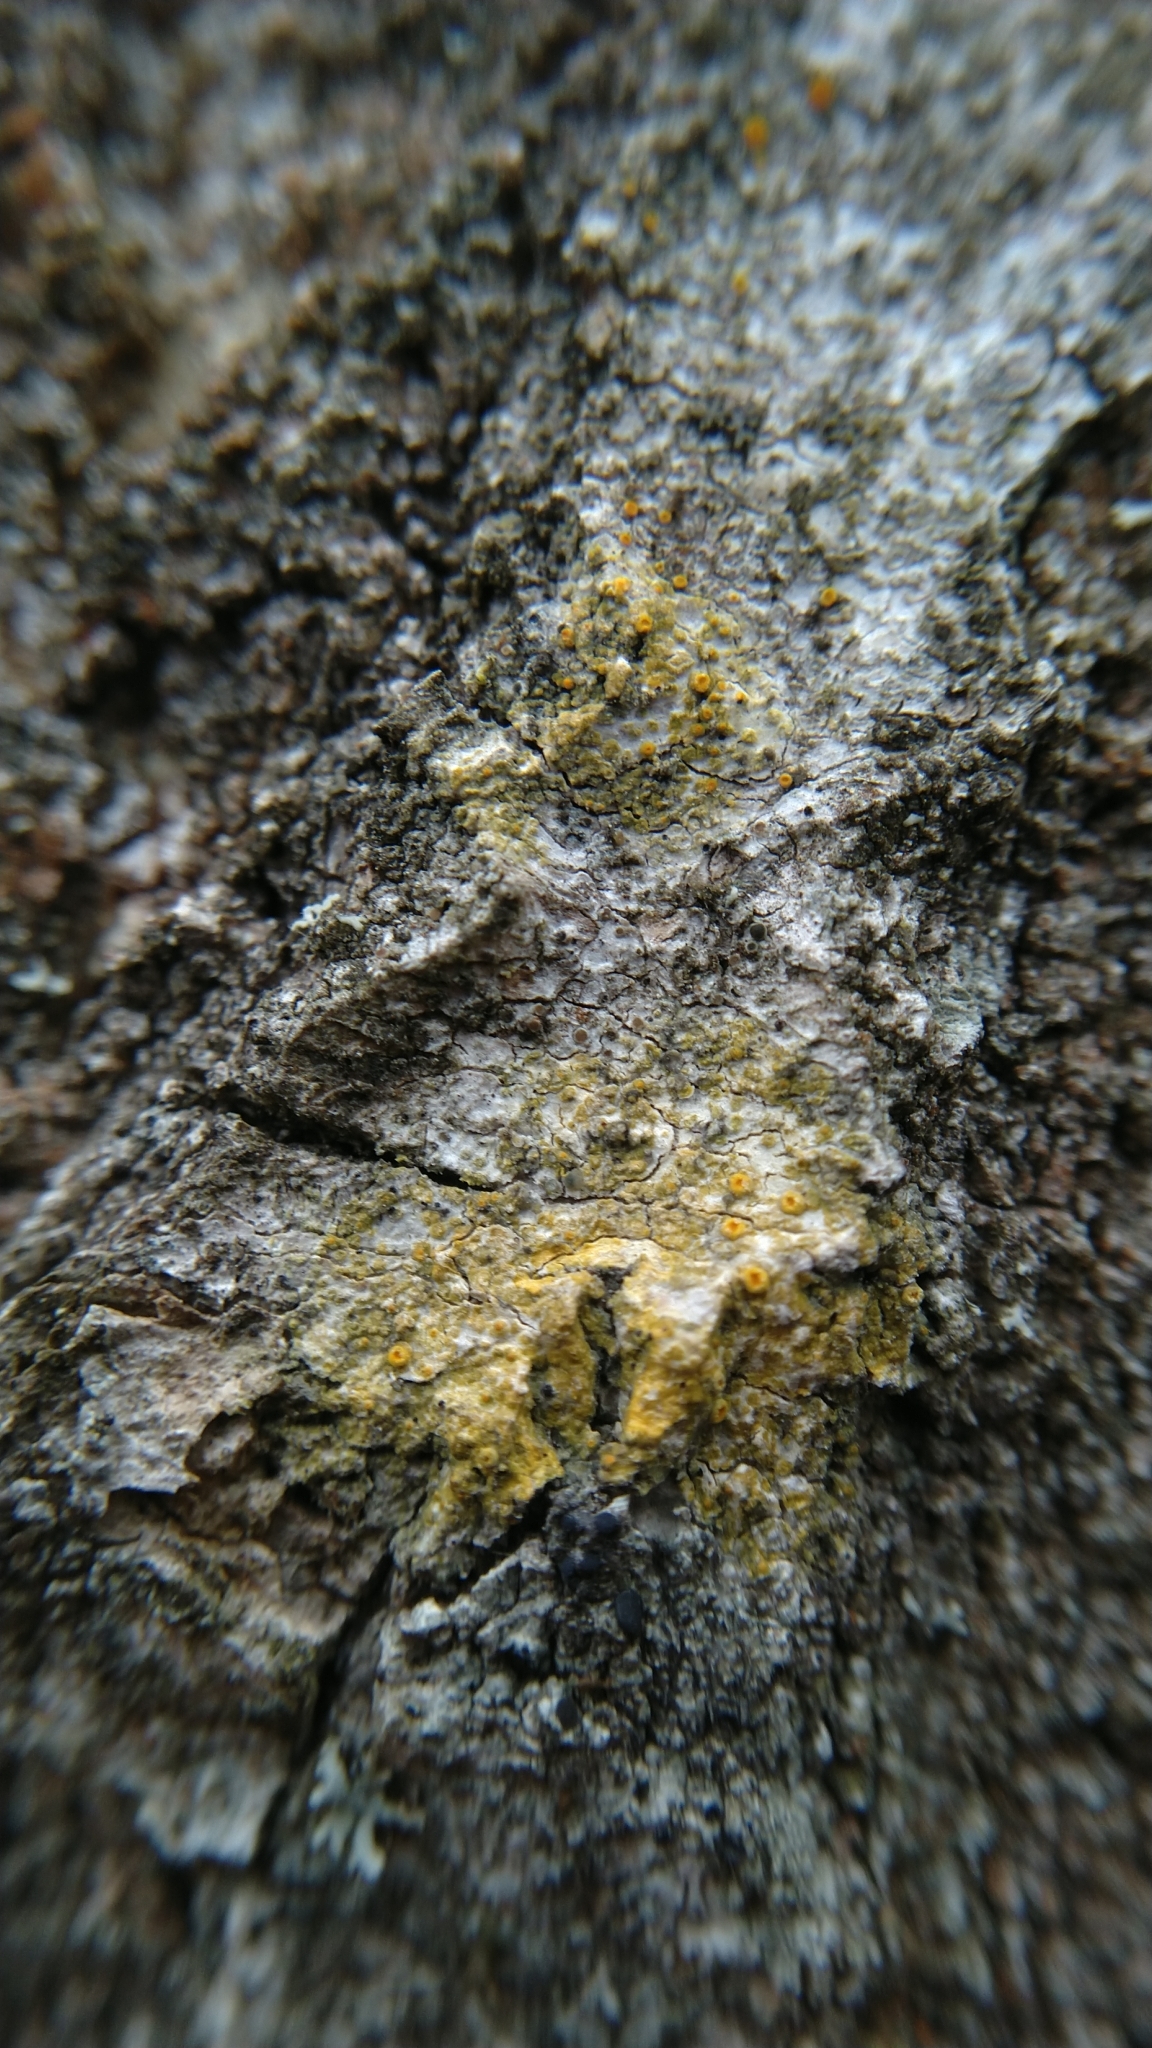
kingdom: Fungi
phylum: Ascomycota
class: Lecanoromycetes
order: Teloschistales
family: Teloschistaceae
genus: Opeltia
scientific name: Opeltia flavorubescens
